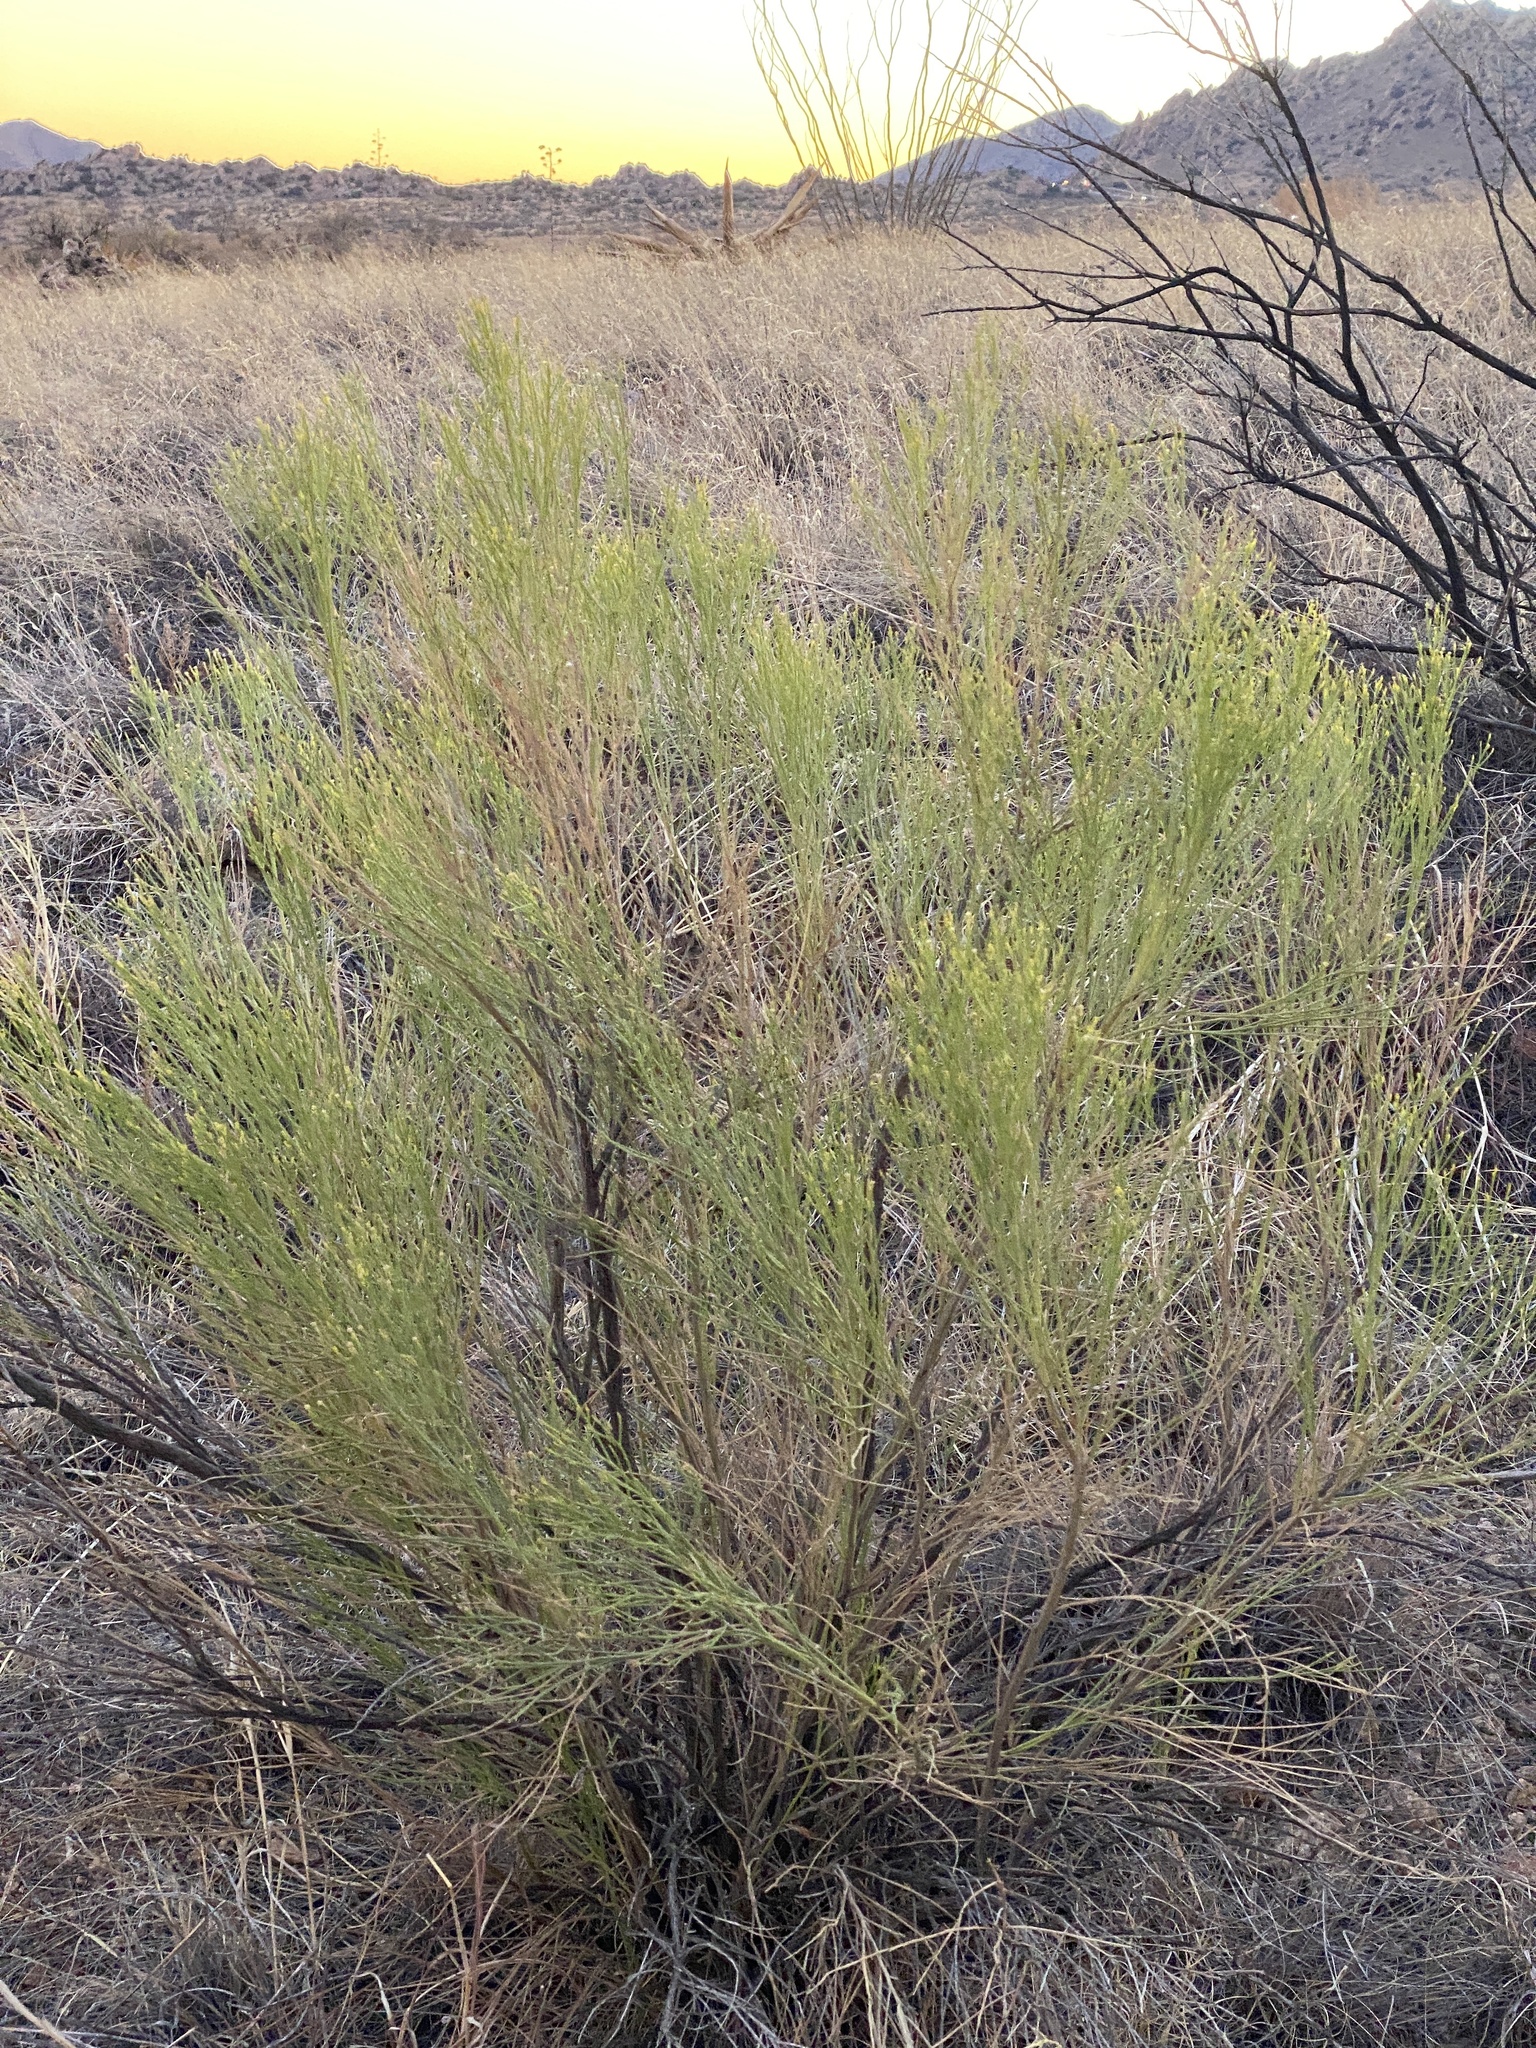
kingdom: Plantae
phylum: Tracheophyta
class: Magnoliopsida
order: Asterales
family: Asteraceae
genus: Baccharis
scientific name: Baccharis sarothroides
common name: Desert-broom
